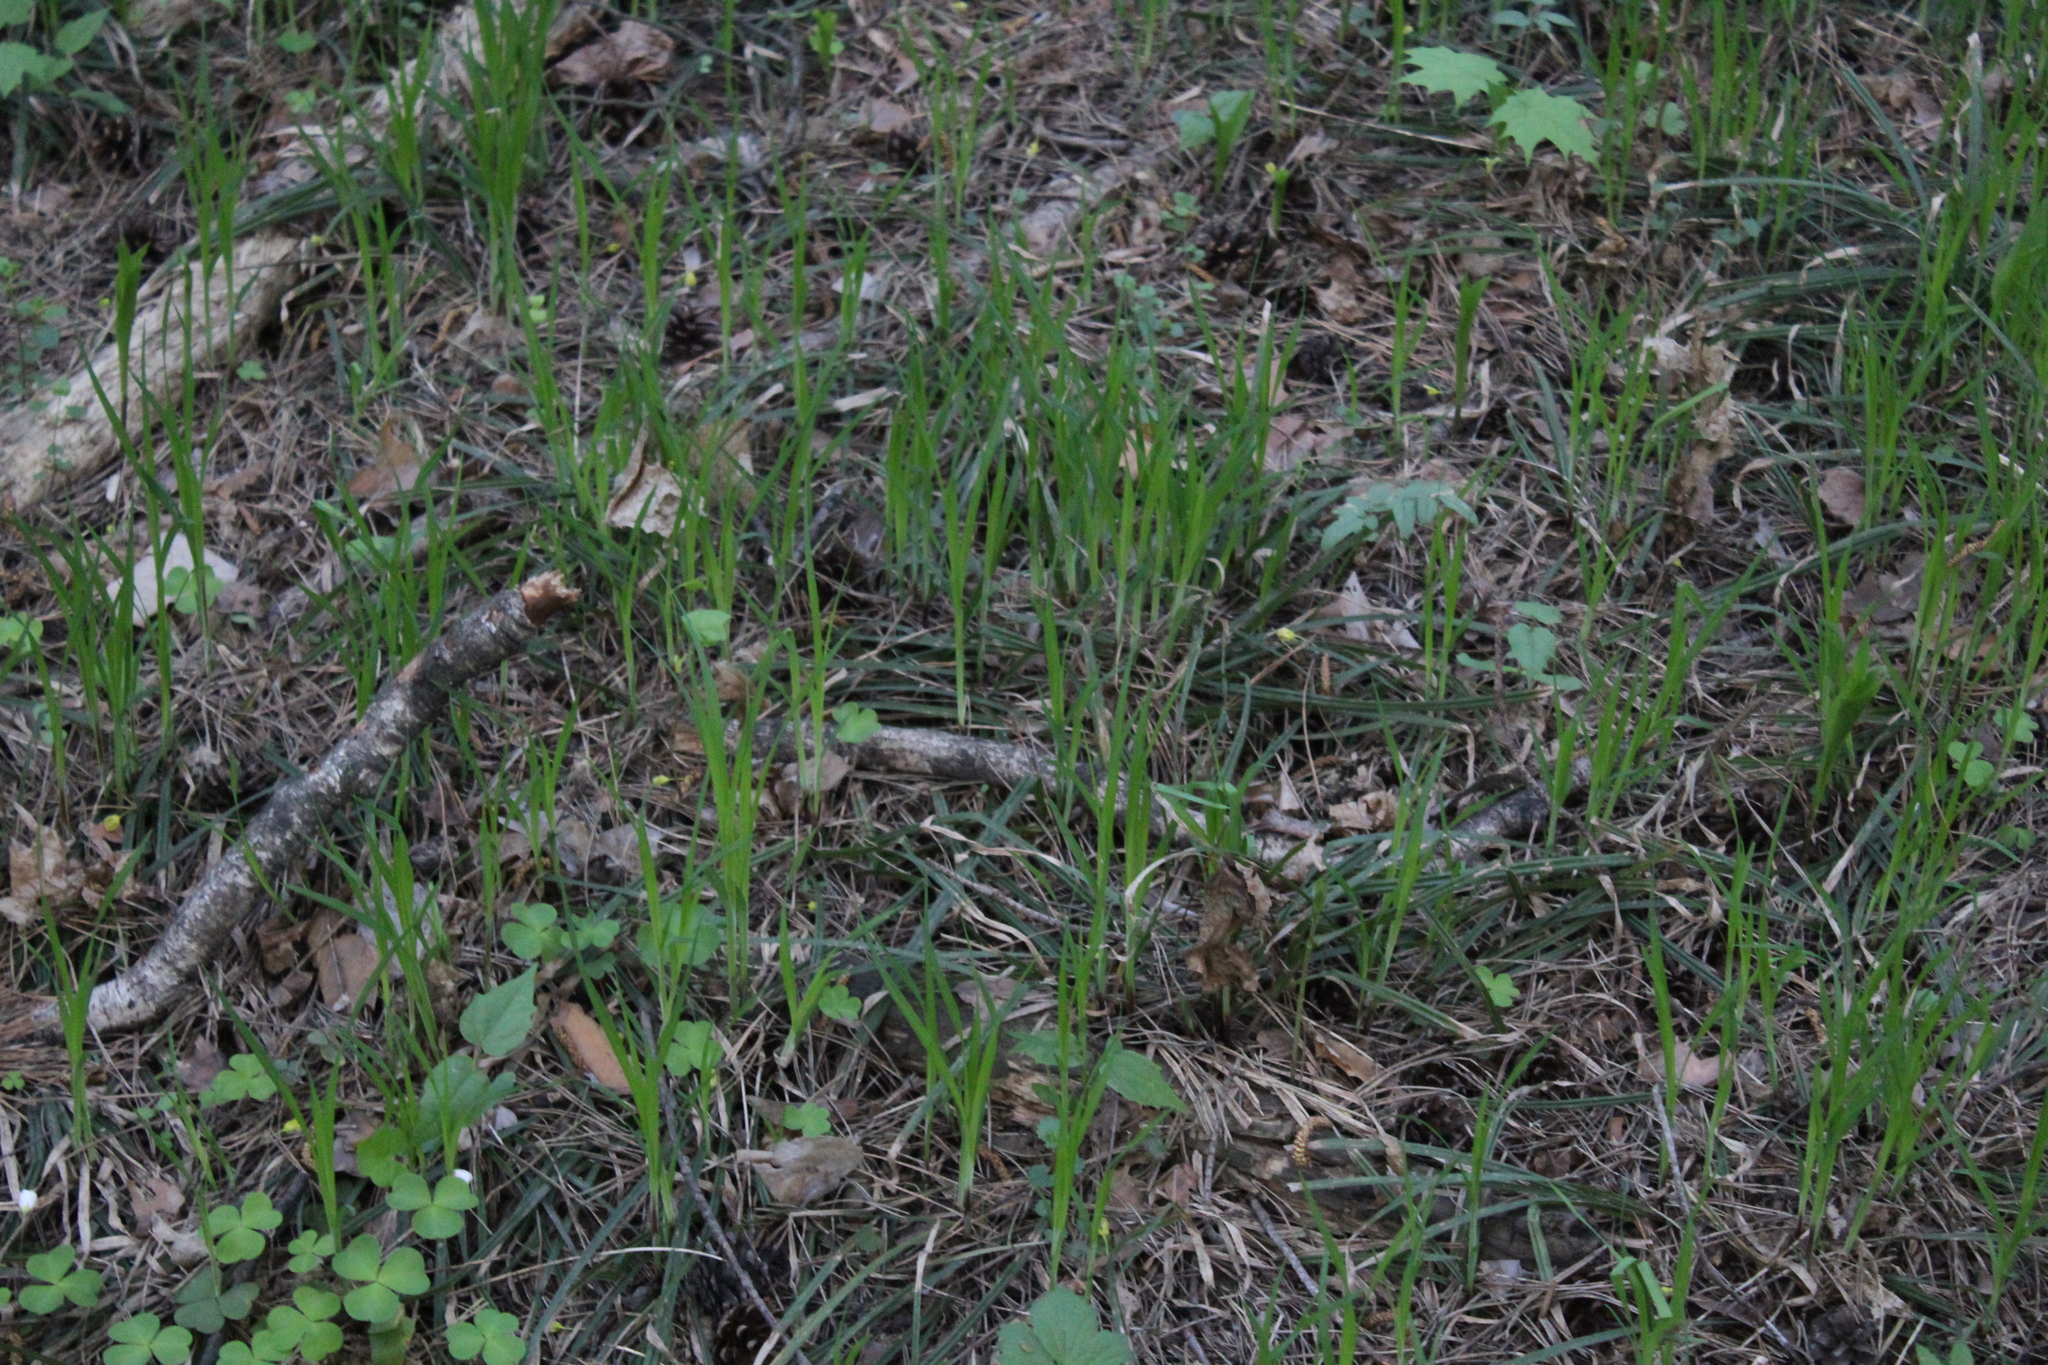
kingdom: Plantae
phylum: Tracheophyta
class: Liliopsida
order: Poales
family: Cyperaceae
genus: Carex
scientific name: Carex pilosa
